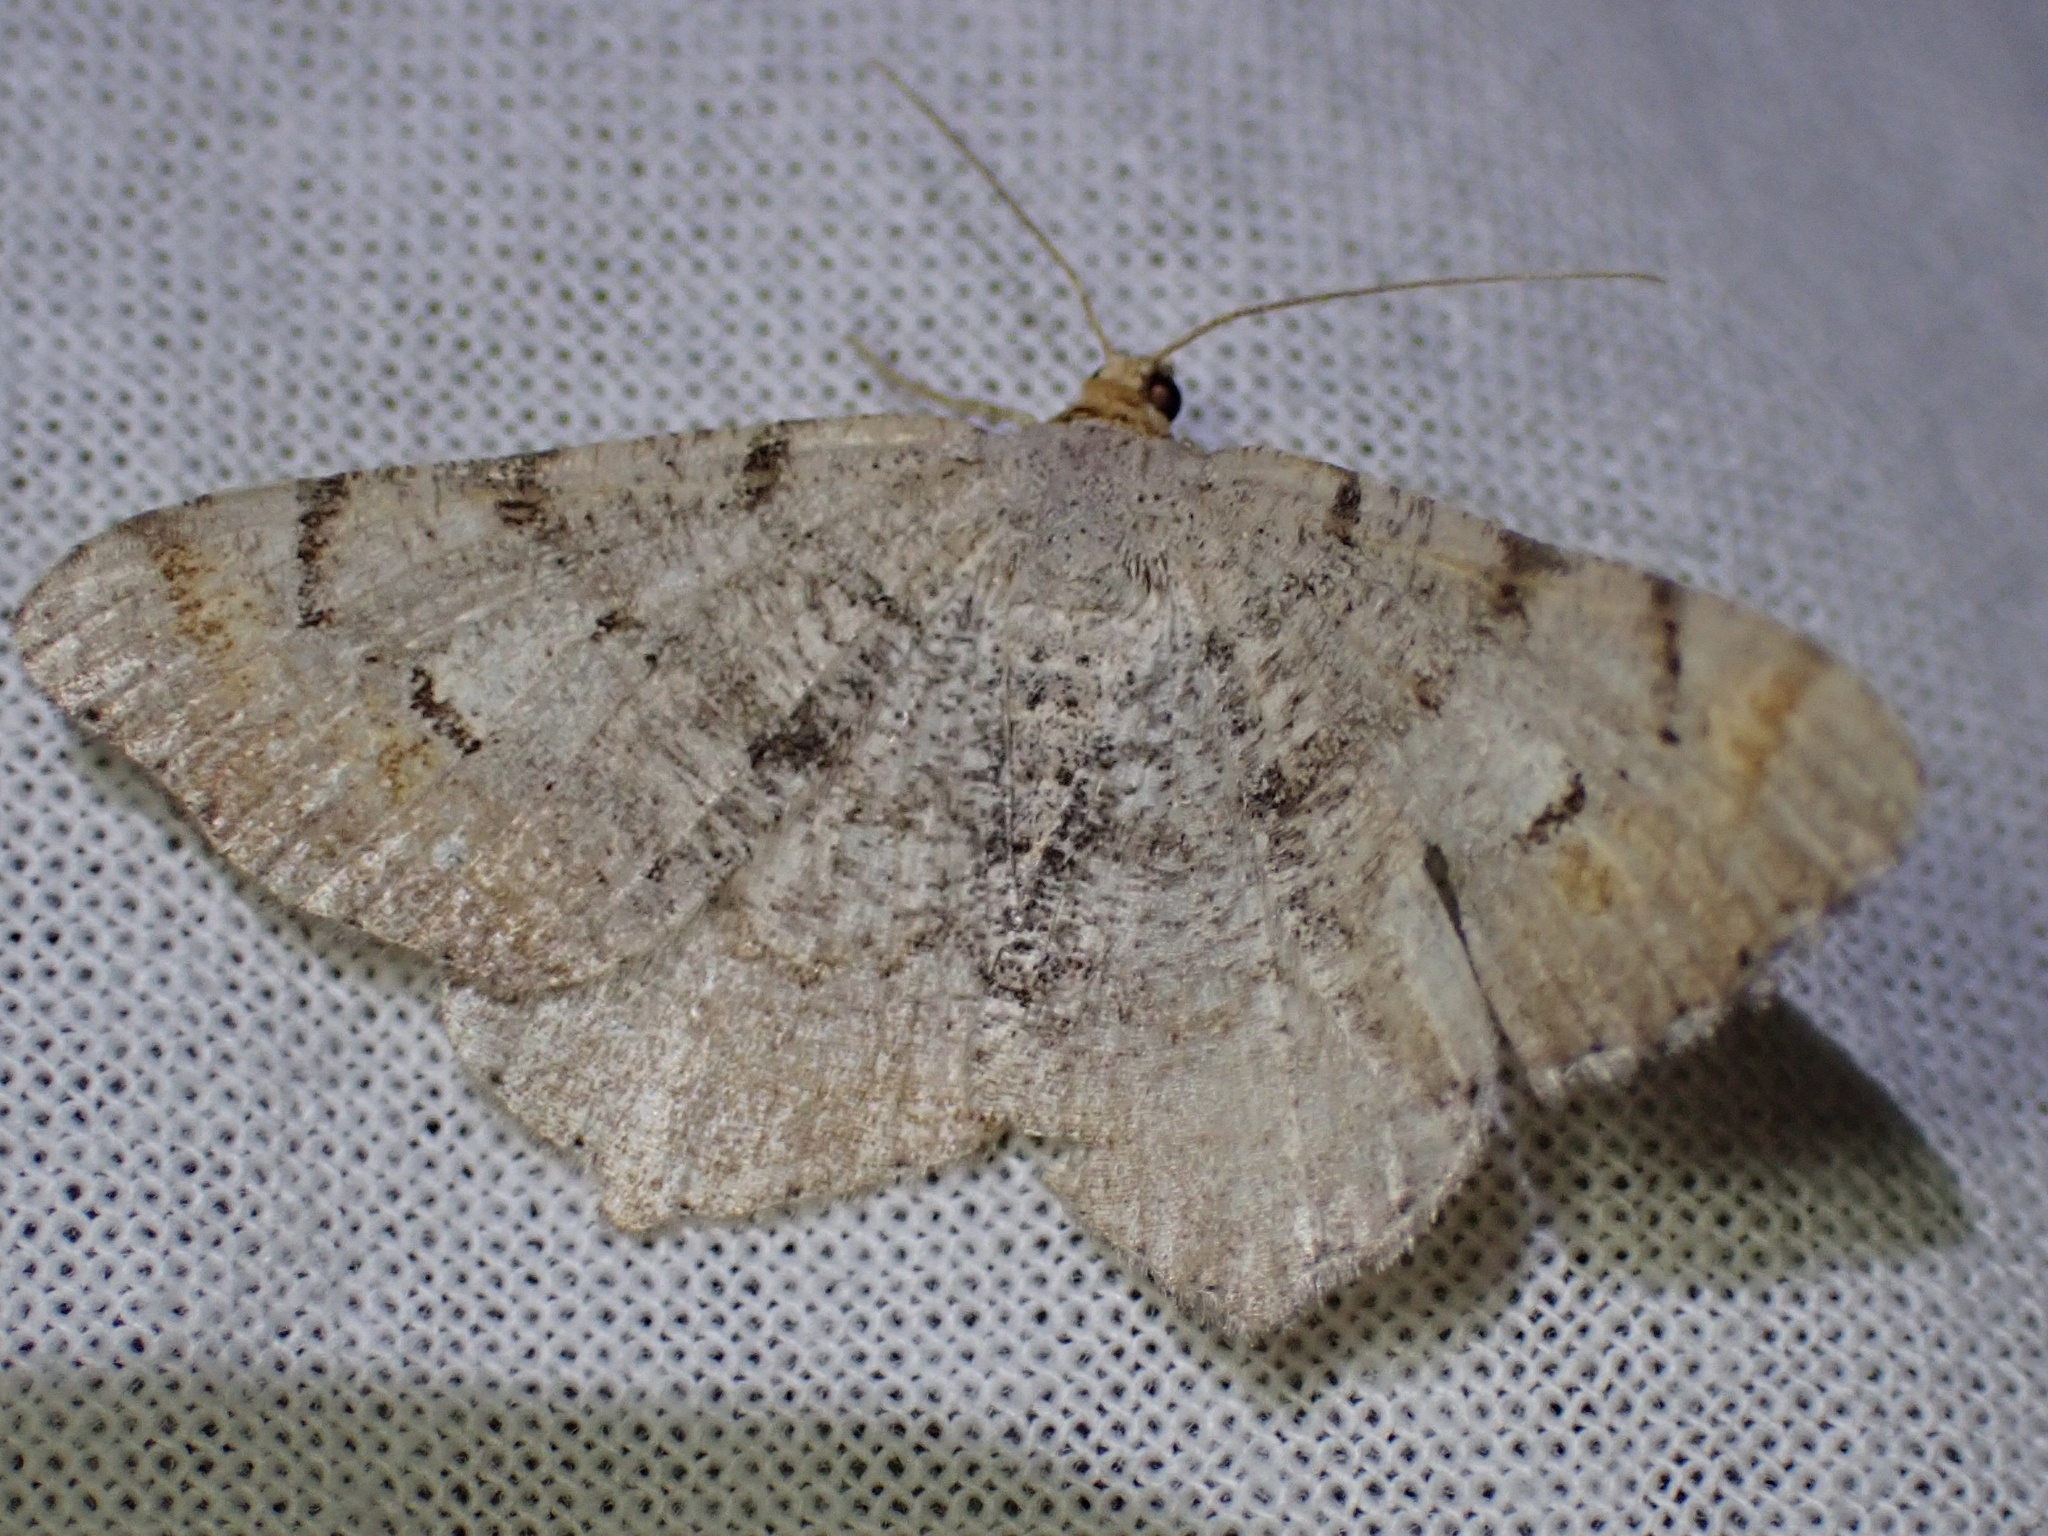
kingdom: Animalia
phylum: Arthropoda
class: Insecta
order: Lepidoptera
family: Geometridae
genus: Macaria
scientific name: Macaria adonis
